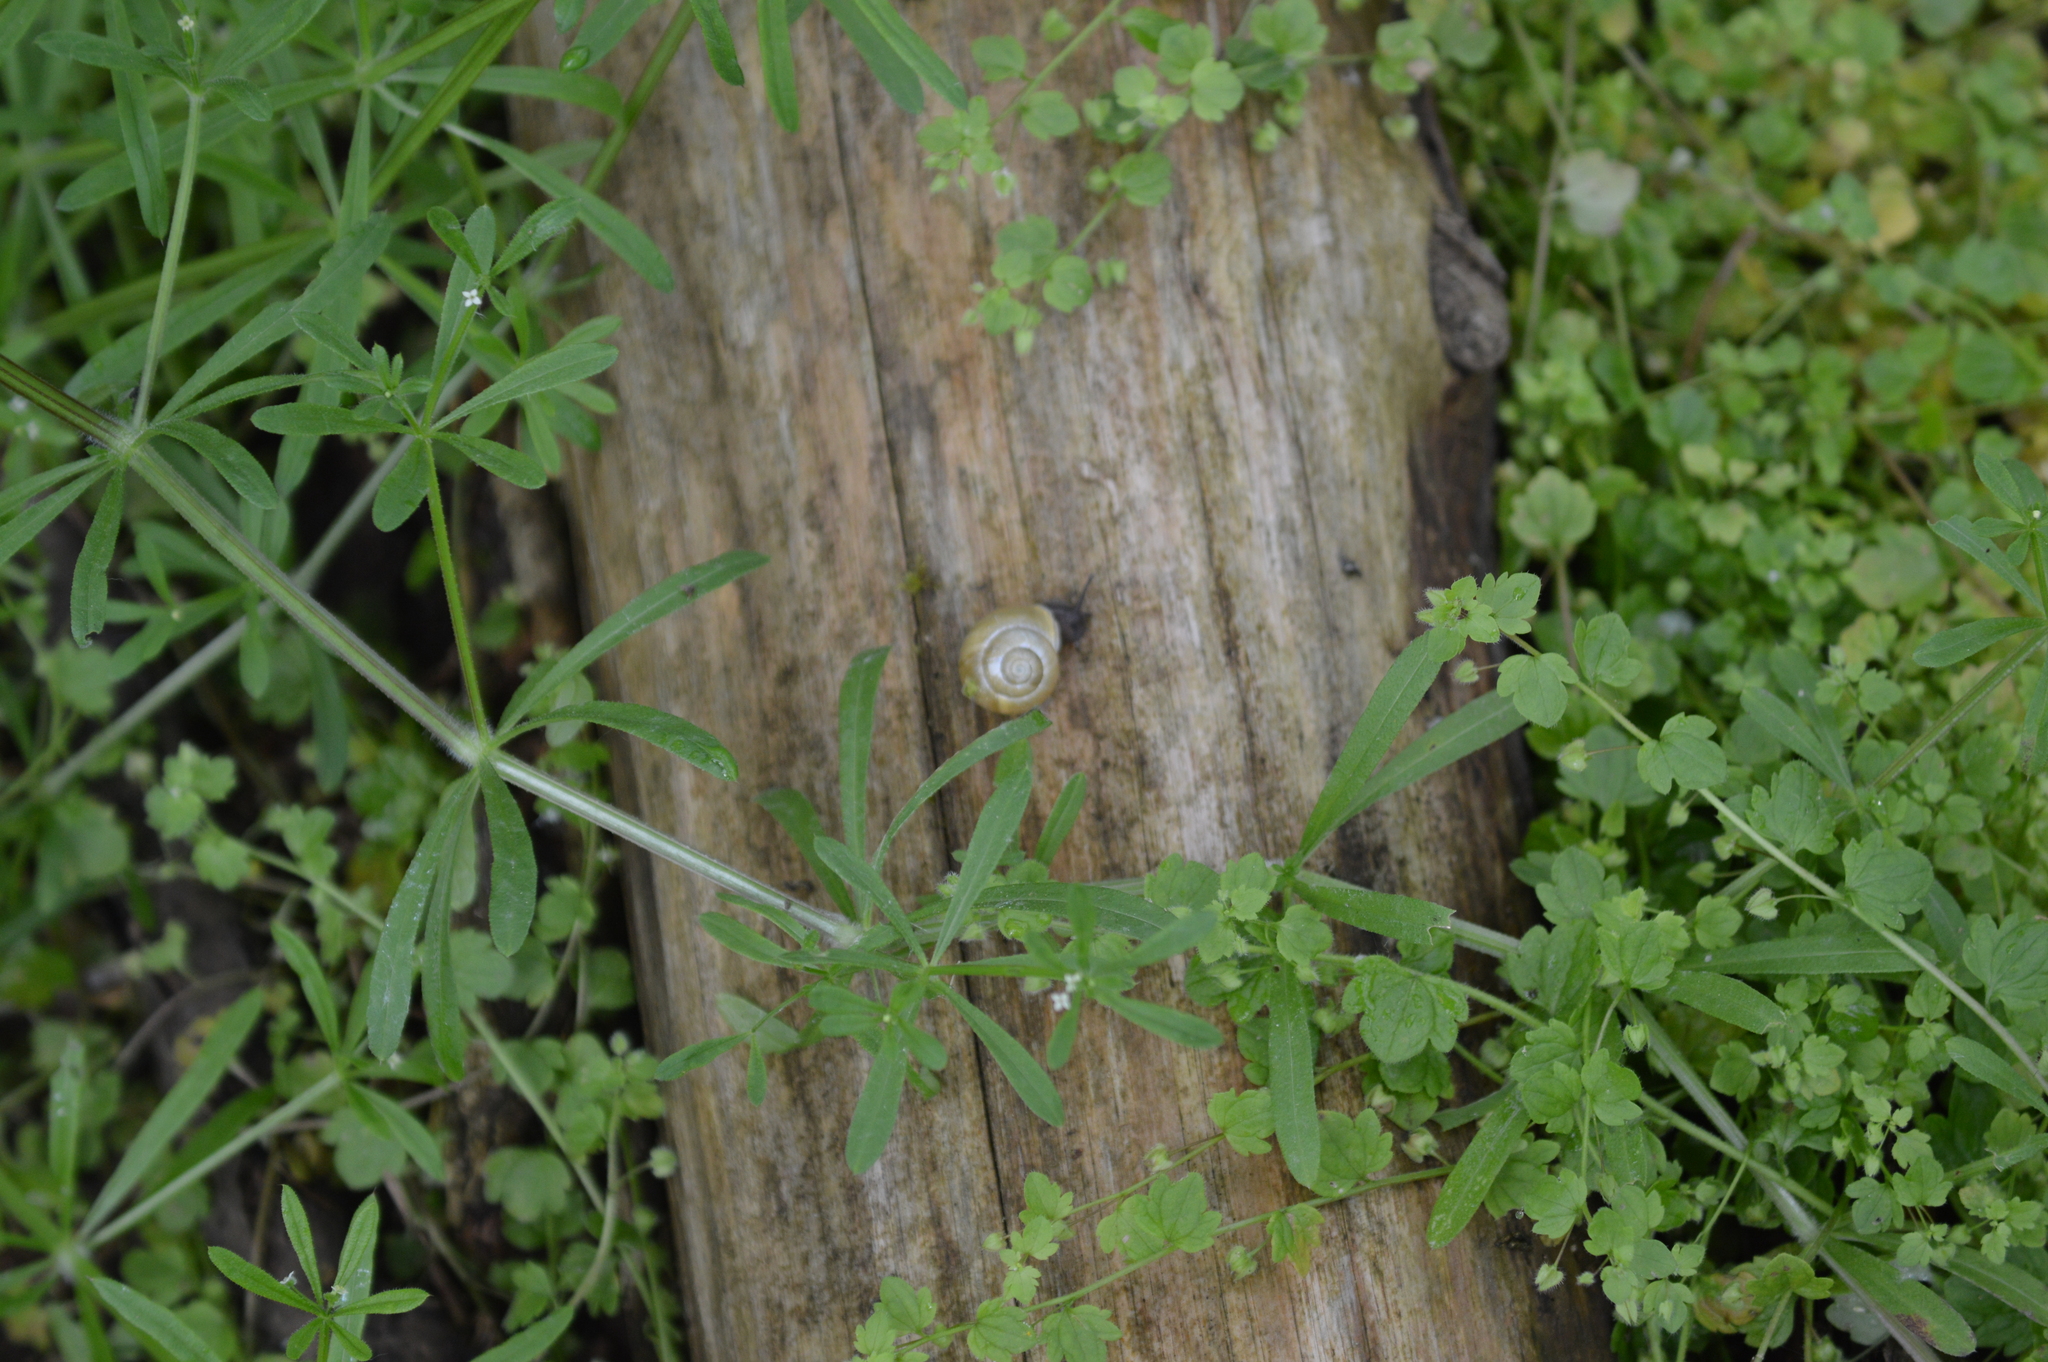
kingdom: Animalia
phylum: Mollusca
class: Gastropoda
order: Stylommatophora
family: Helicidae
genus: Cepaea
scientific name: Cepaea hortensis
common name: White-lip gardensnail
